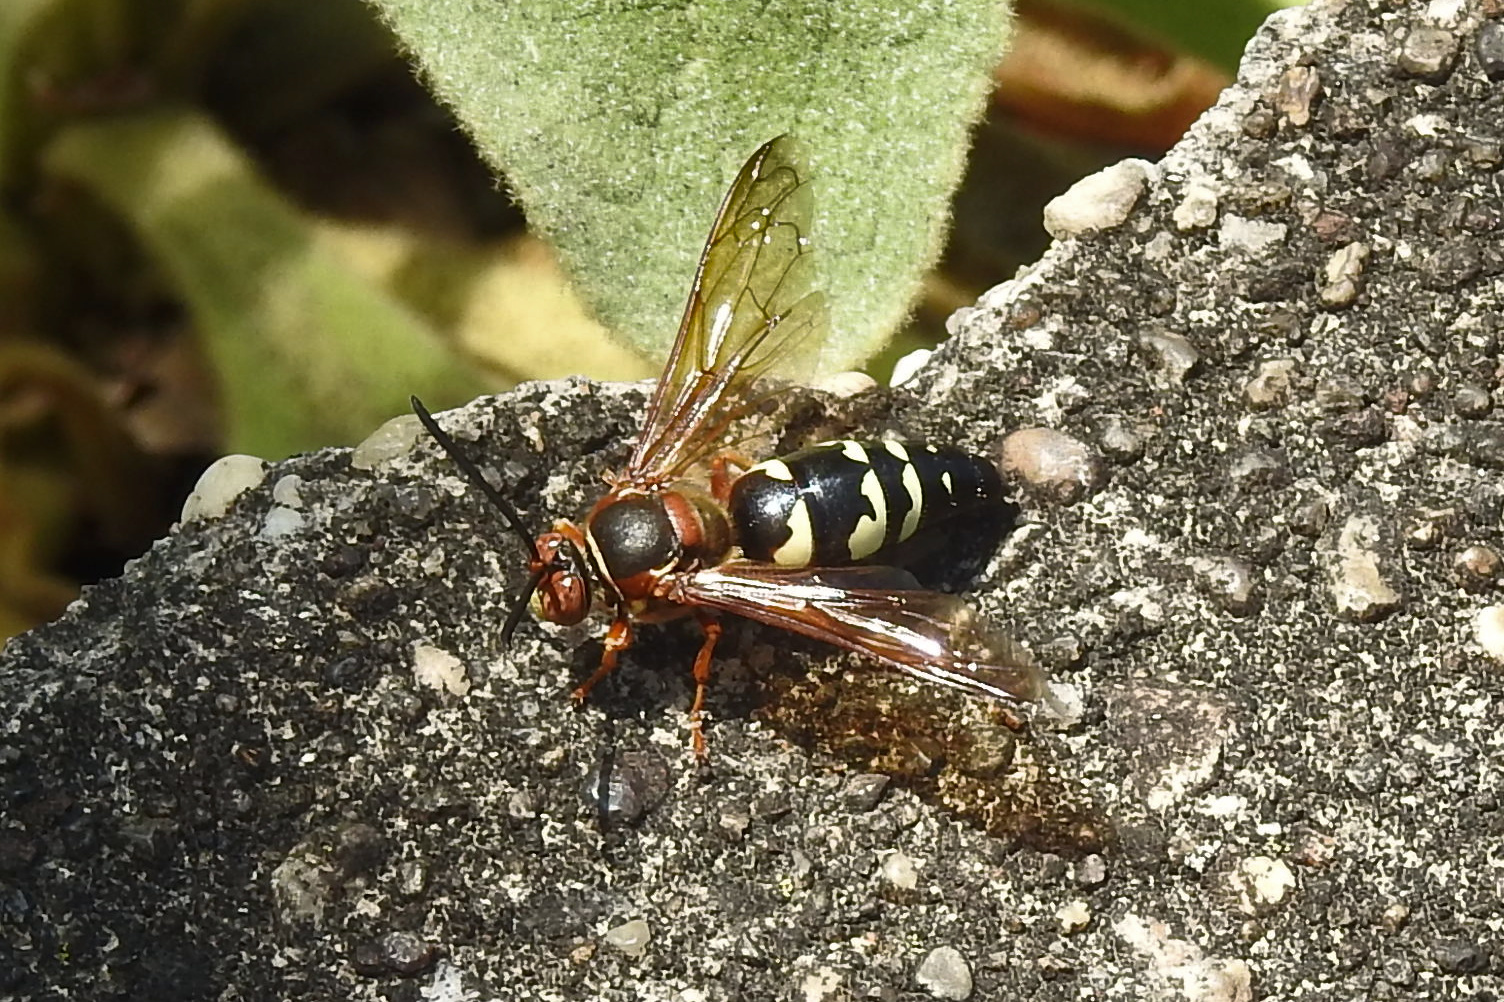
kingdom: Animalia
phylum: Arthropoda
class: Insecta
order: Hymenoptera
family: Crabronidae
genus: Sphecius
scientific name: Sphecius speciosus
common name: Cicada killer
